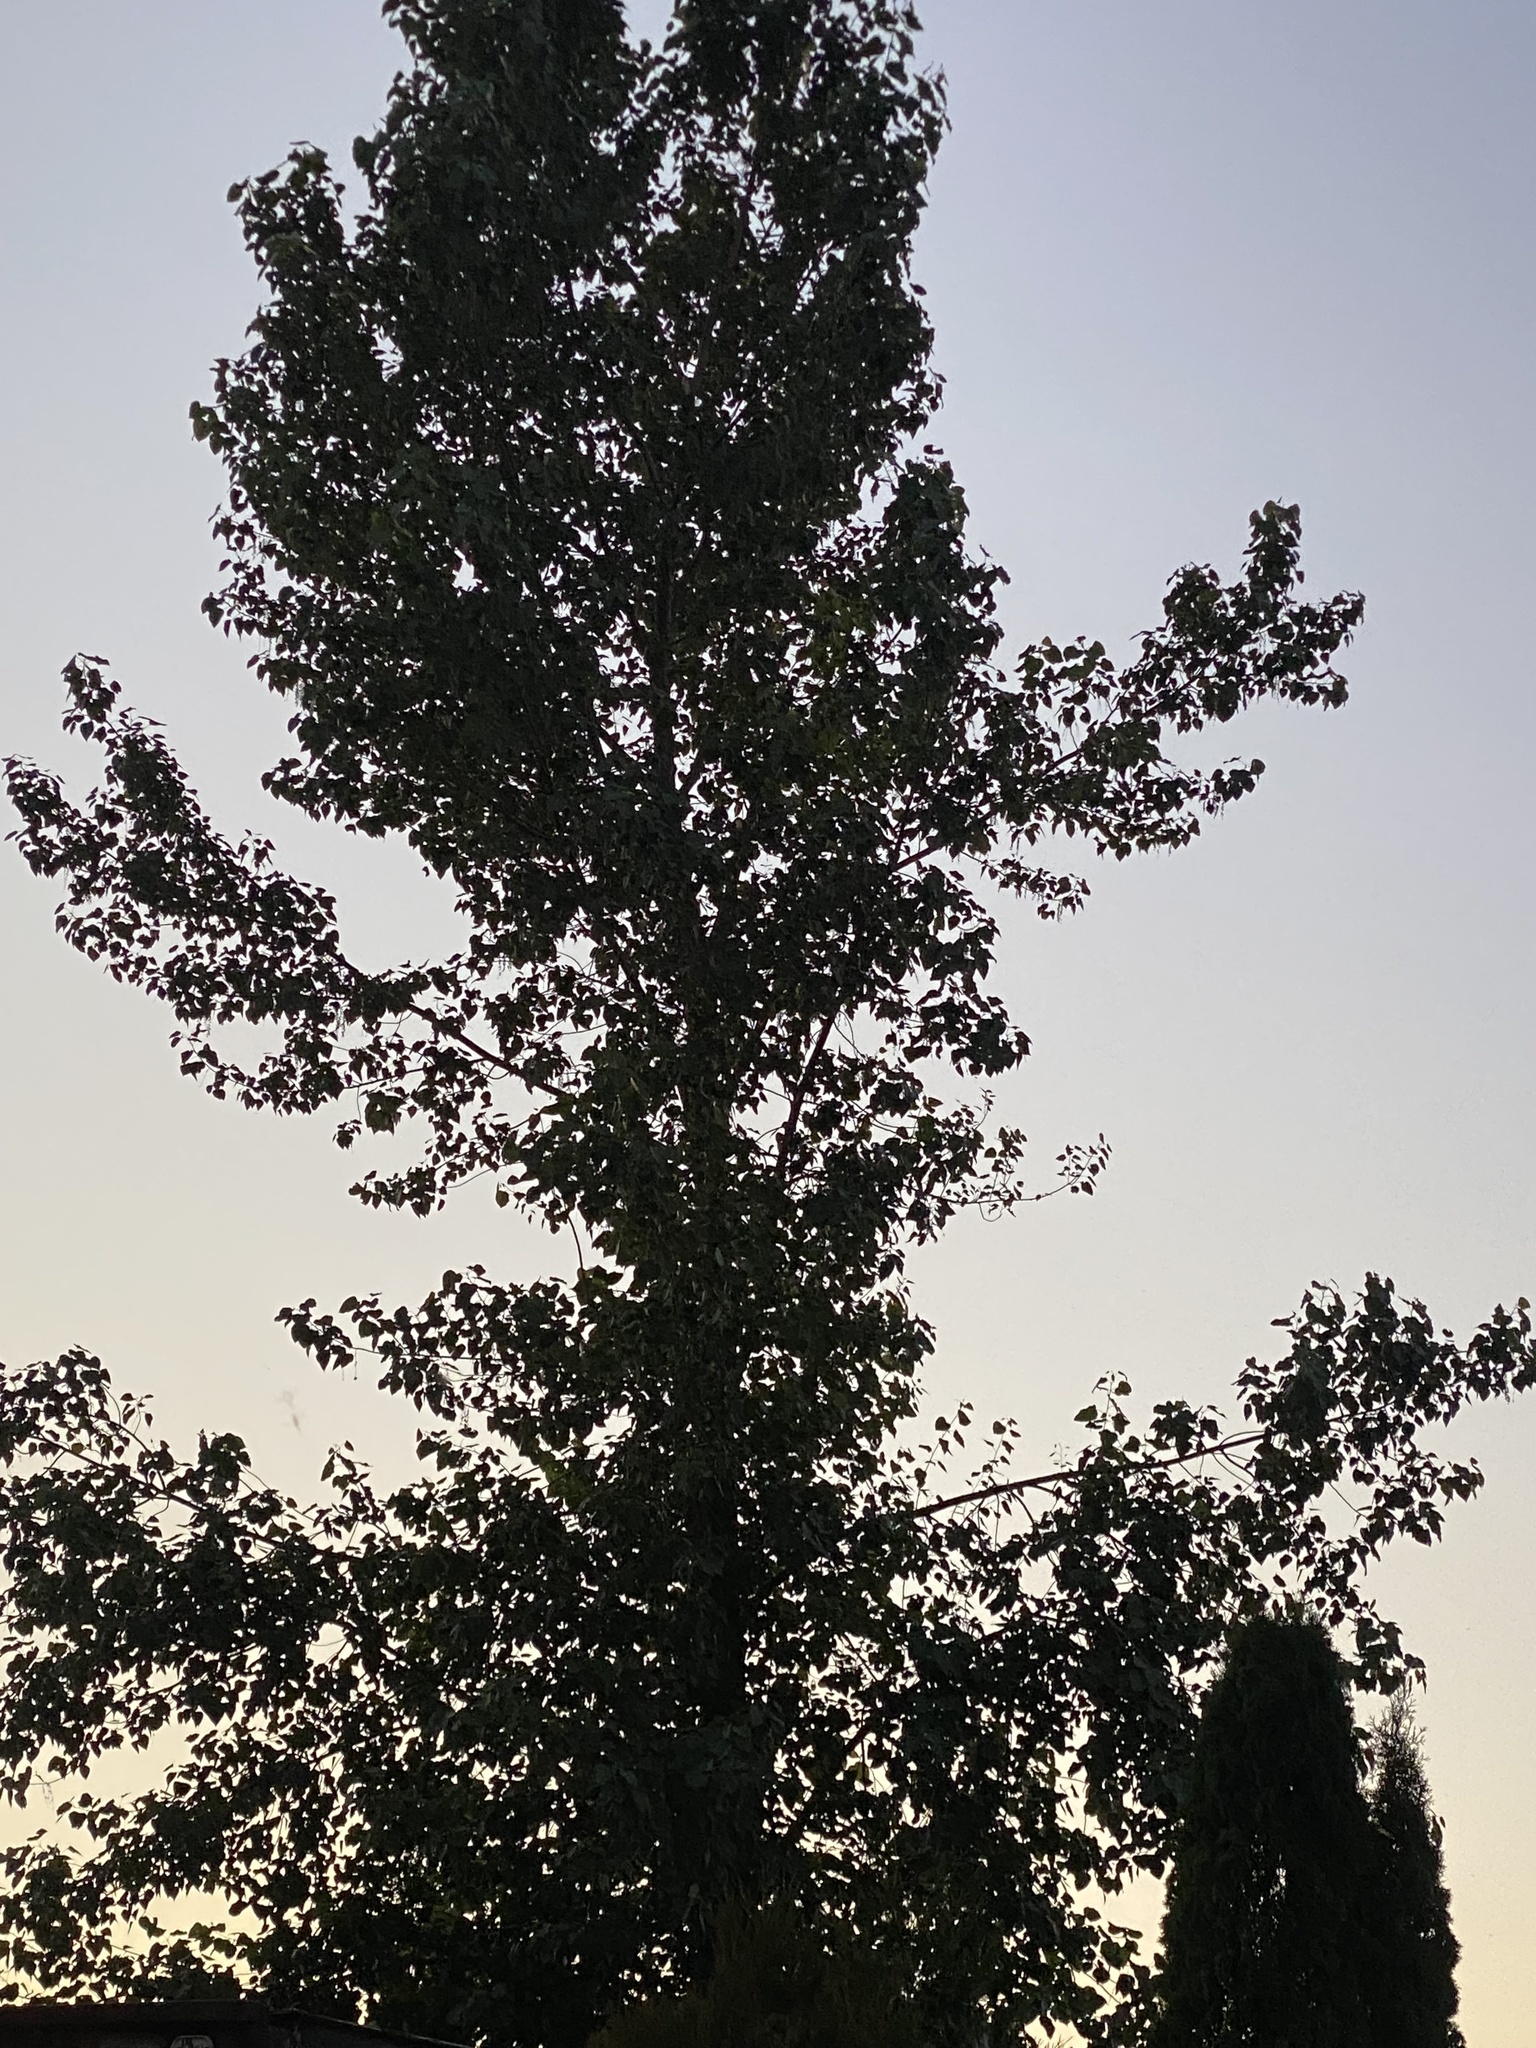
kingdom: Plantae
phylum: Tracheophyta
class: Magnoliopsida
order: Malpighiales
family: Salicaceae
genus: Populus
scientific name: Populus trichocarpa
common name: Black cottonwood
